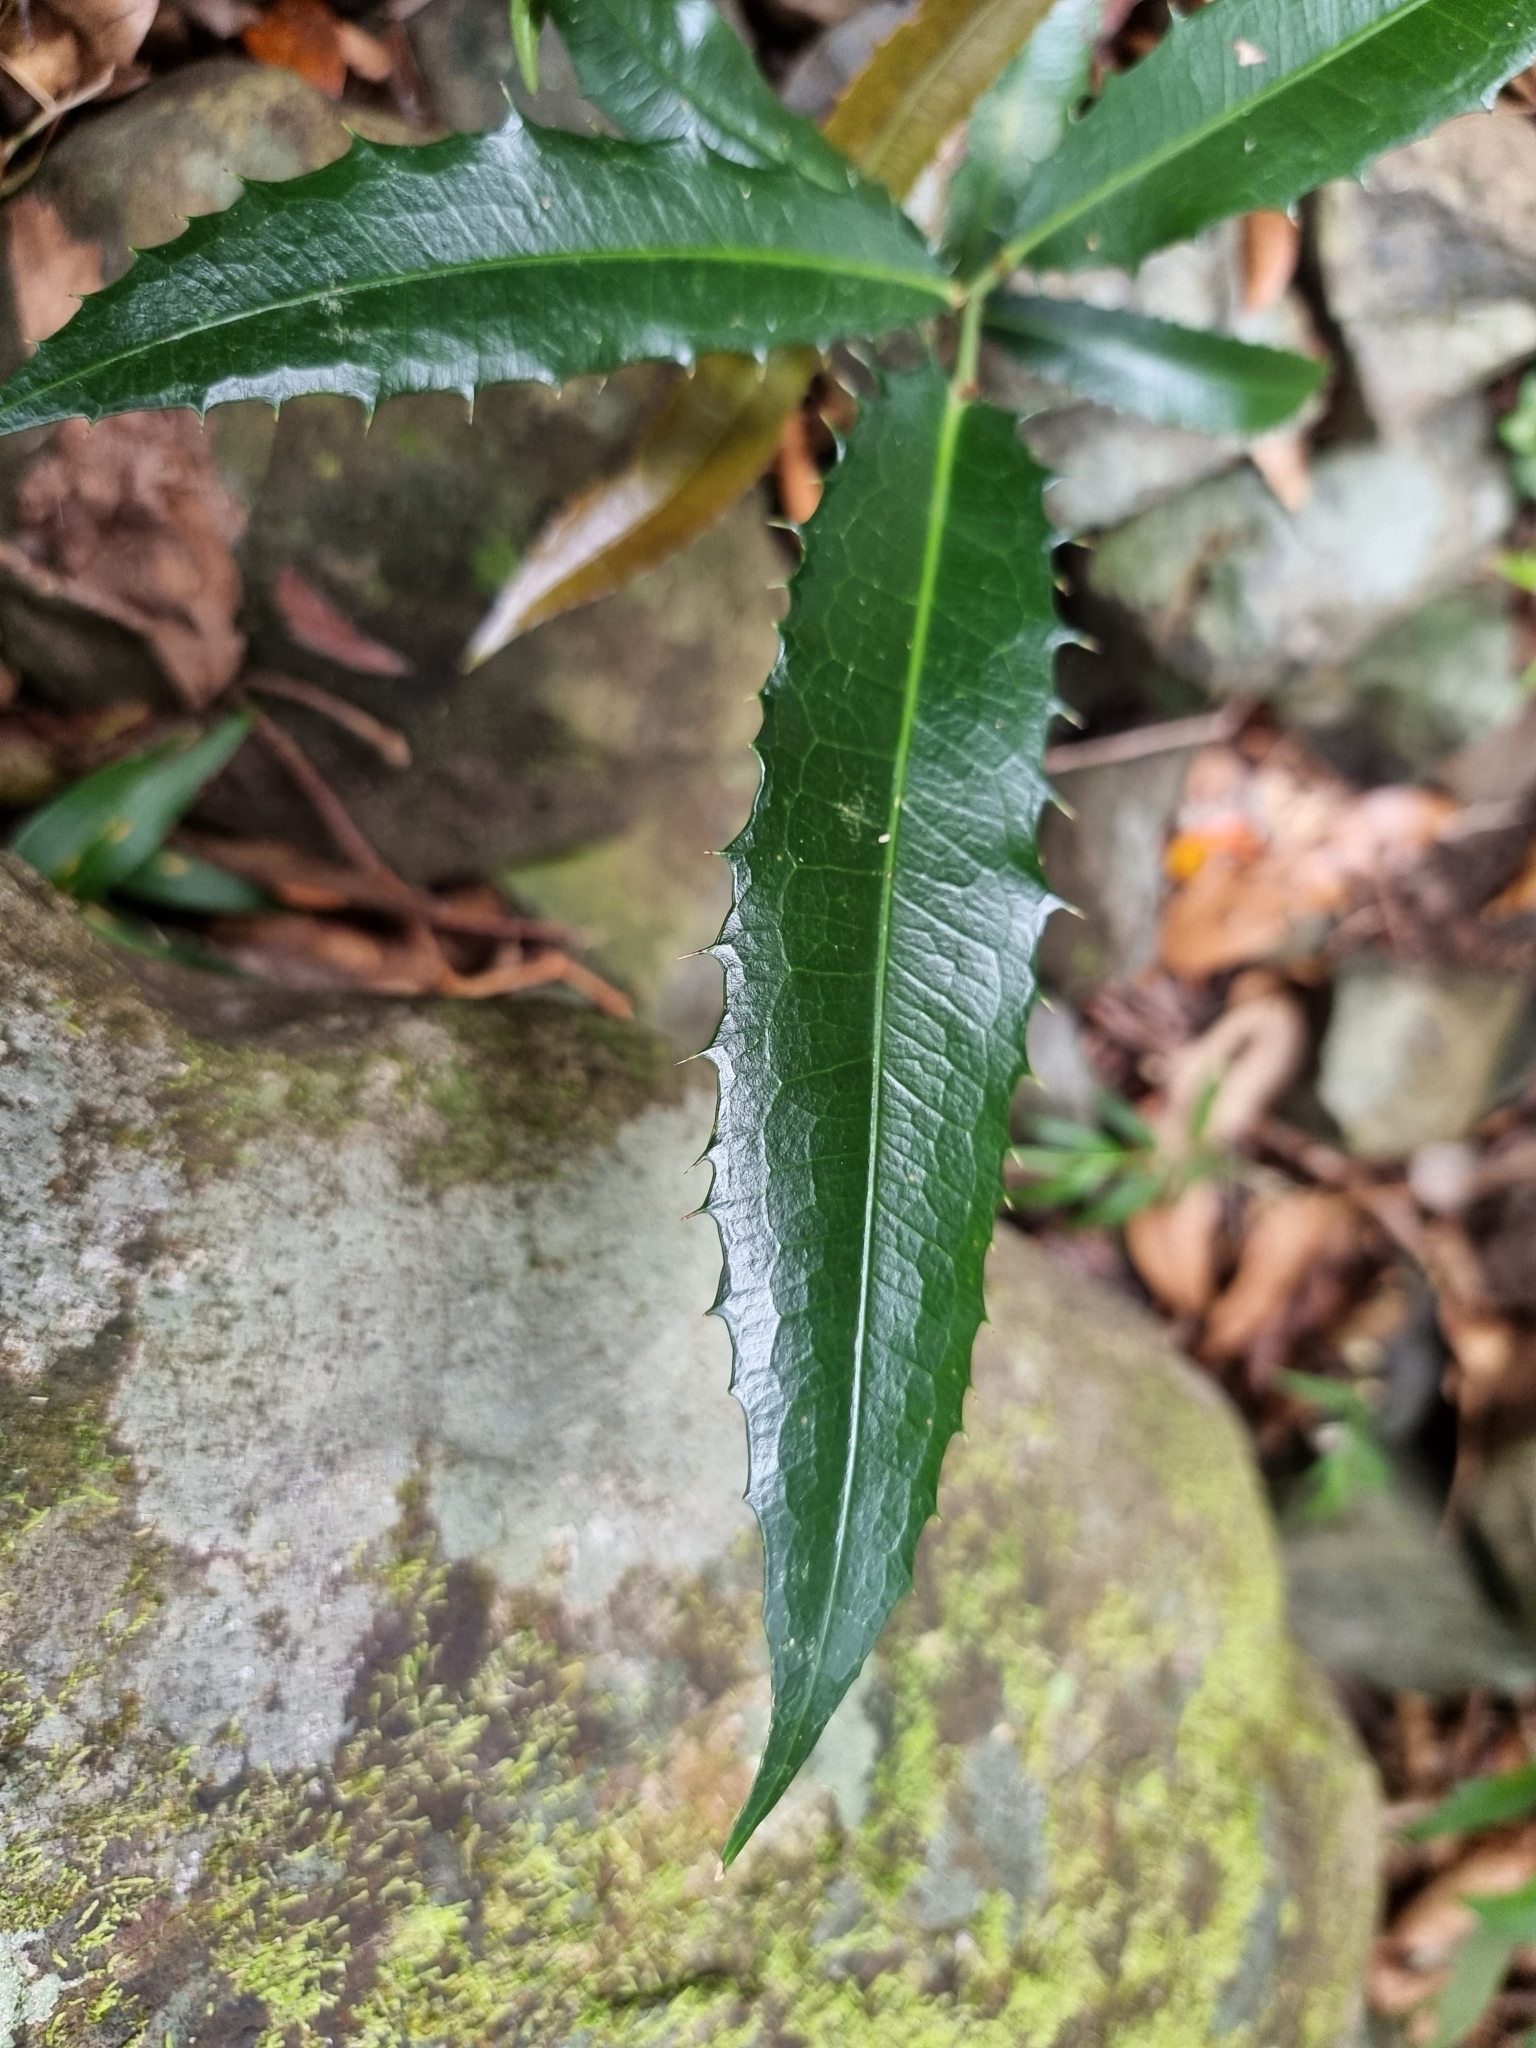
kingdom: Plantae
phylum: Tracheophyta
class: Magnoliopsida
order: Laurales
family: Monimiaceae
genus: Wilkiea
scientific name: Wilkiea macrophylla
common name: Large-leaved wilkiea
